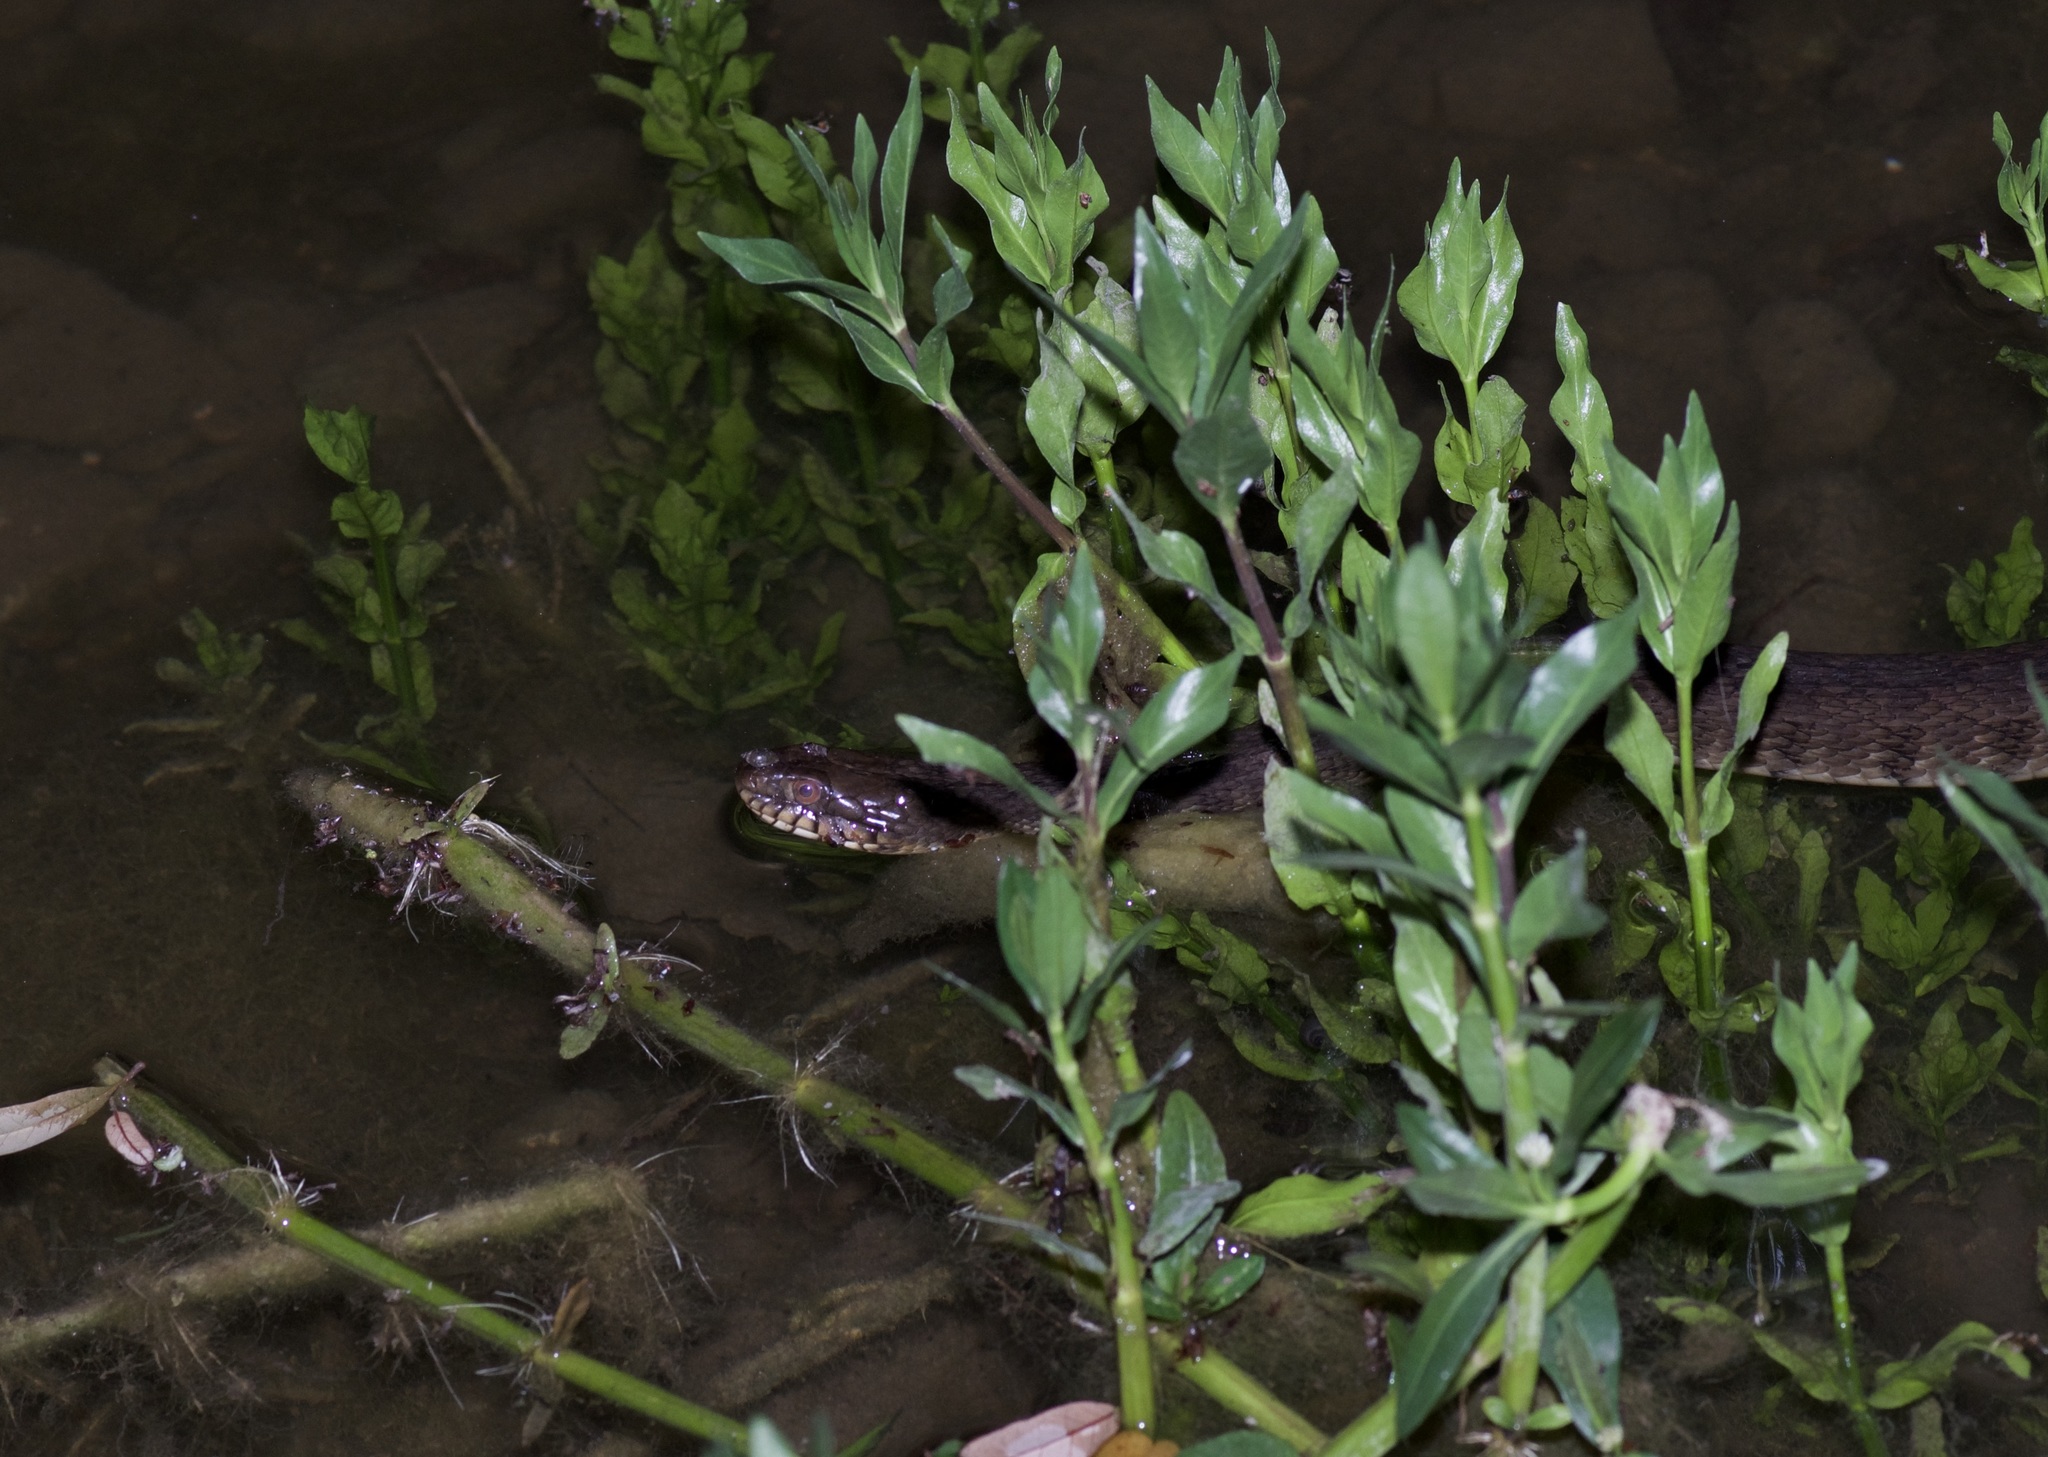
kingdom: Animalia
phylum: Chordata
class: Squamata
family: Colubridae
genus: Nerodia
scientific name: Nerodia rhombifer
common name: Diamondback water snake
